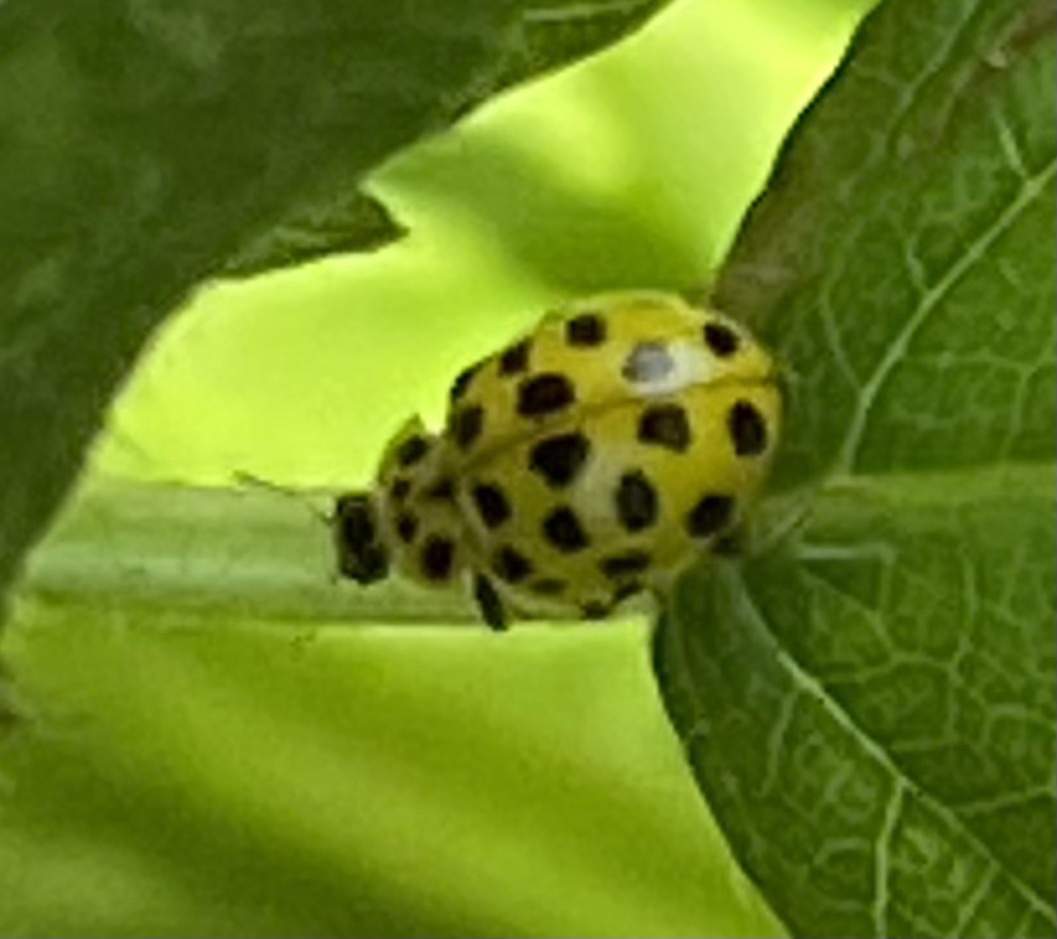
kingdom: Animalia
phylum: Arthropoda
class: Insecta
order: Coleoptera
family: Coccinellidae
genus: Psyllobora
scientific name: Psyllobora vigintiduopunctata
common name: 22-spot ladybird
